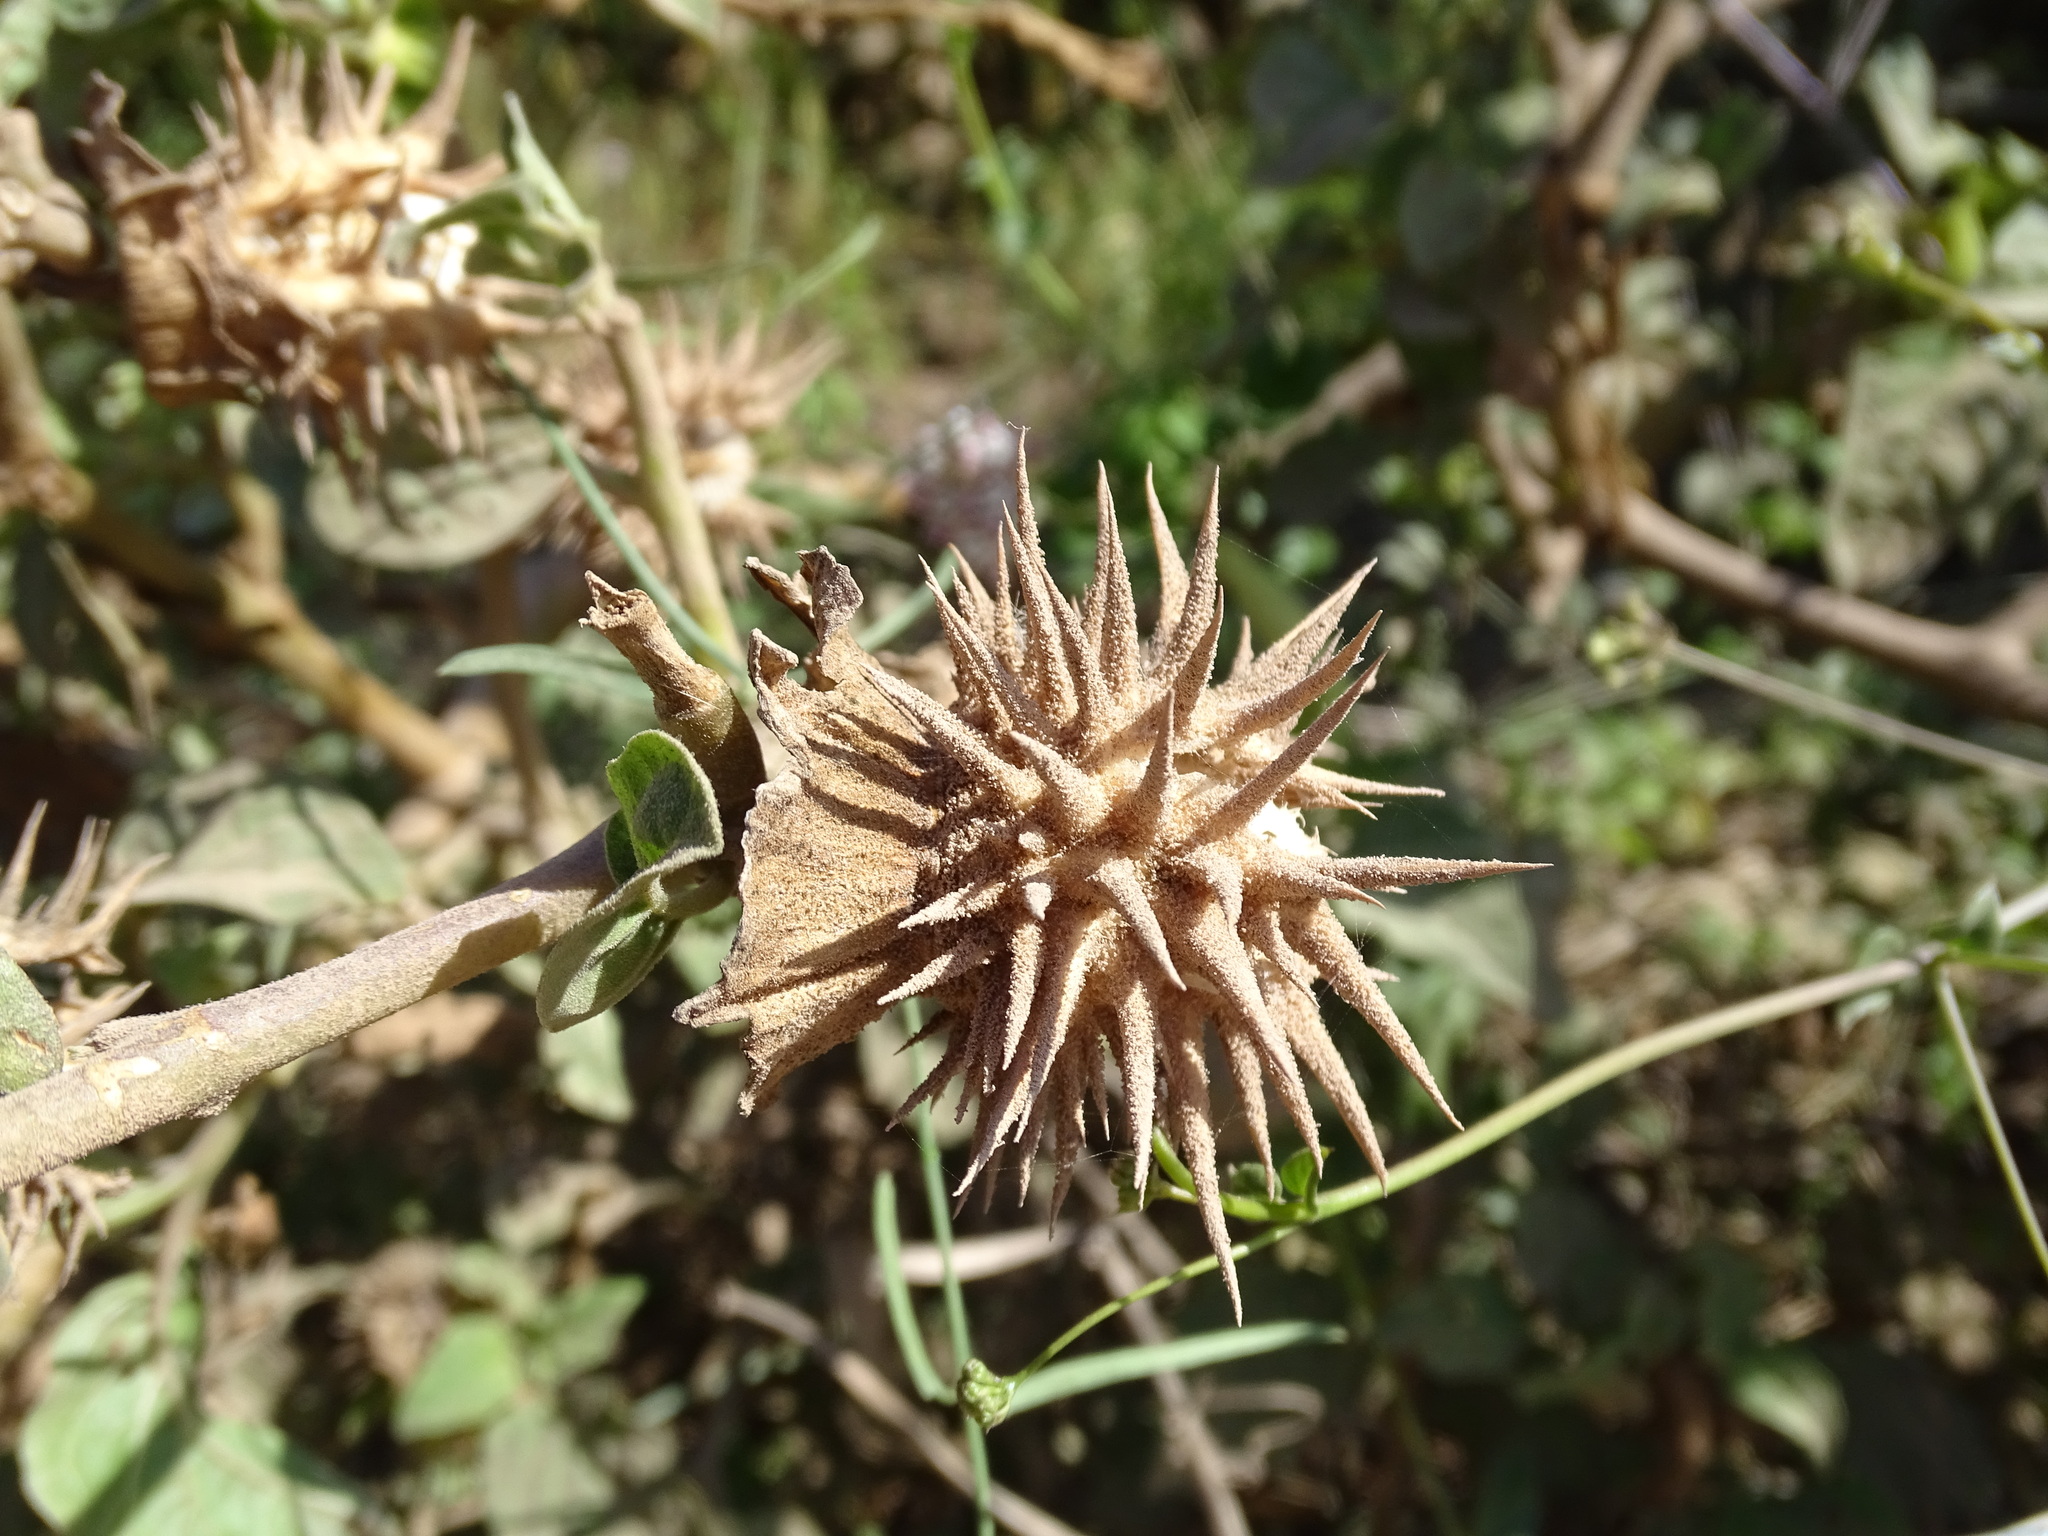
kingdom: Plantae
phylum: Tracheophyta
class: Magnoliopsida
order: Solanales
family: Solanaceae
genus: Datura
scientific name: Datura discolor
